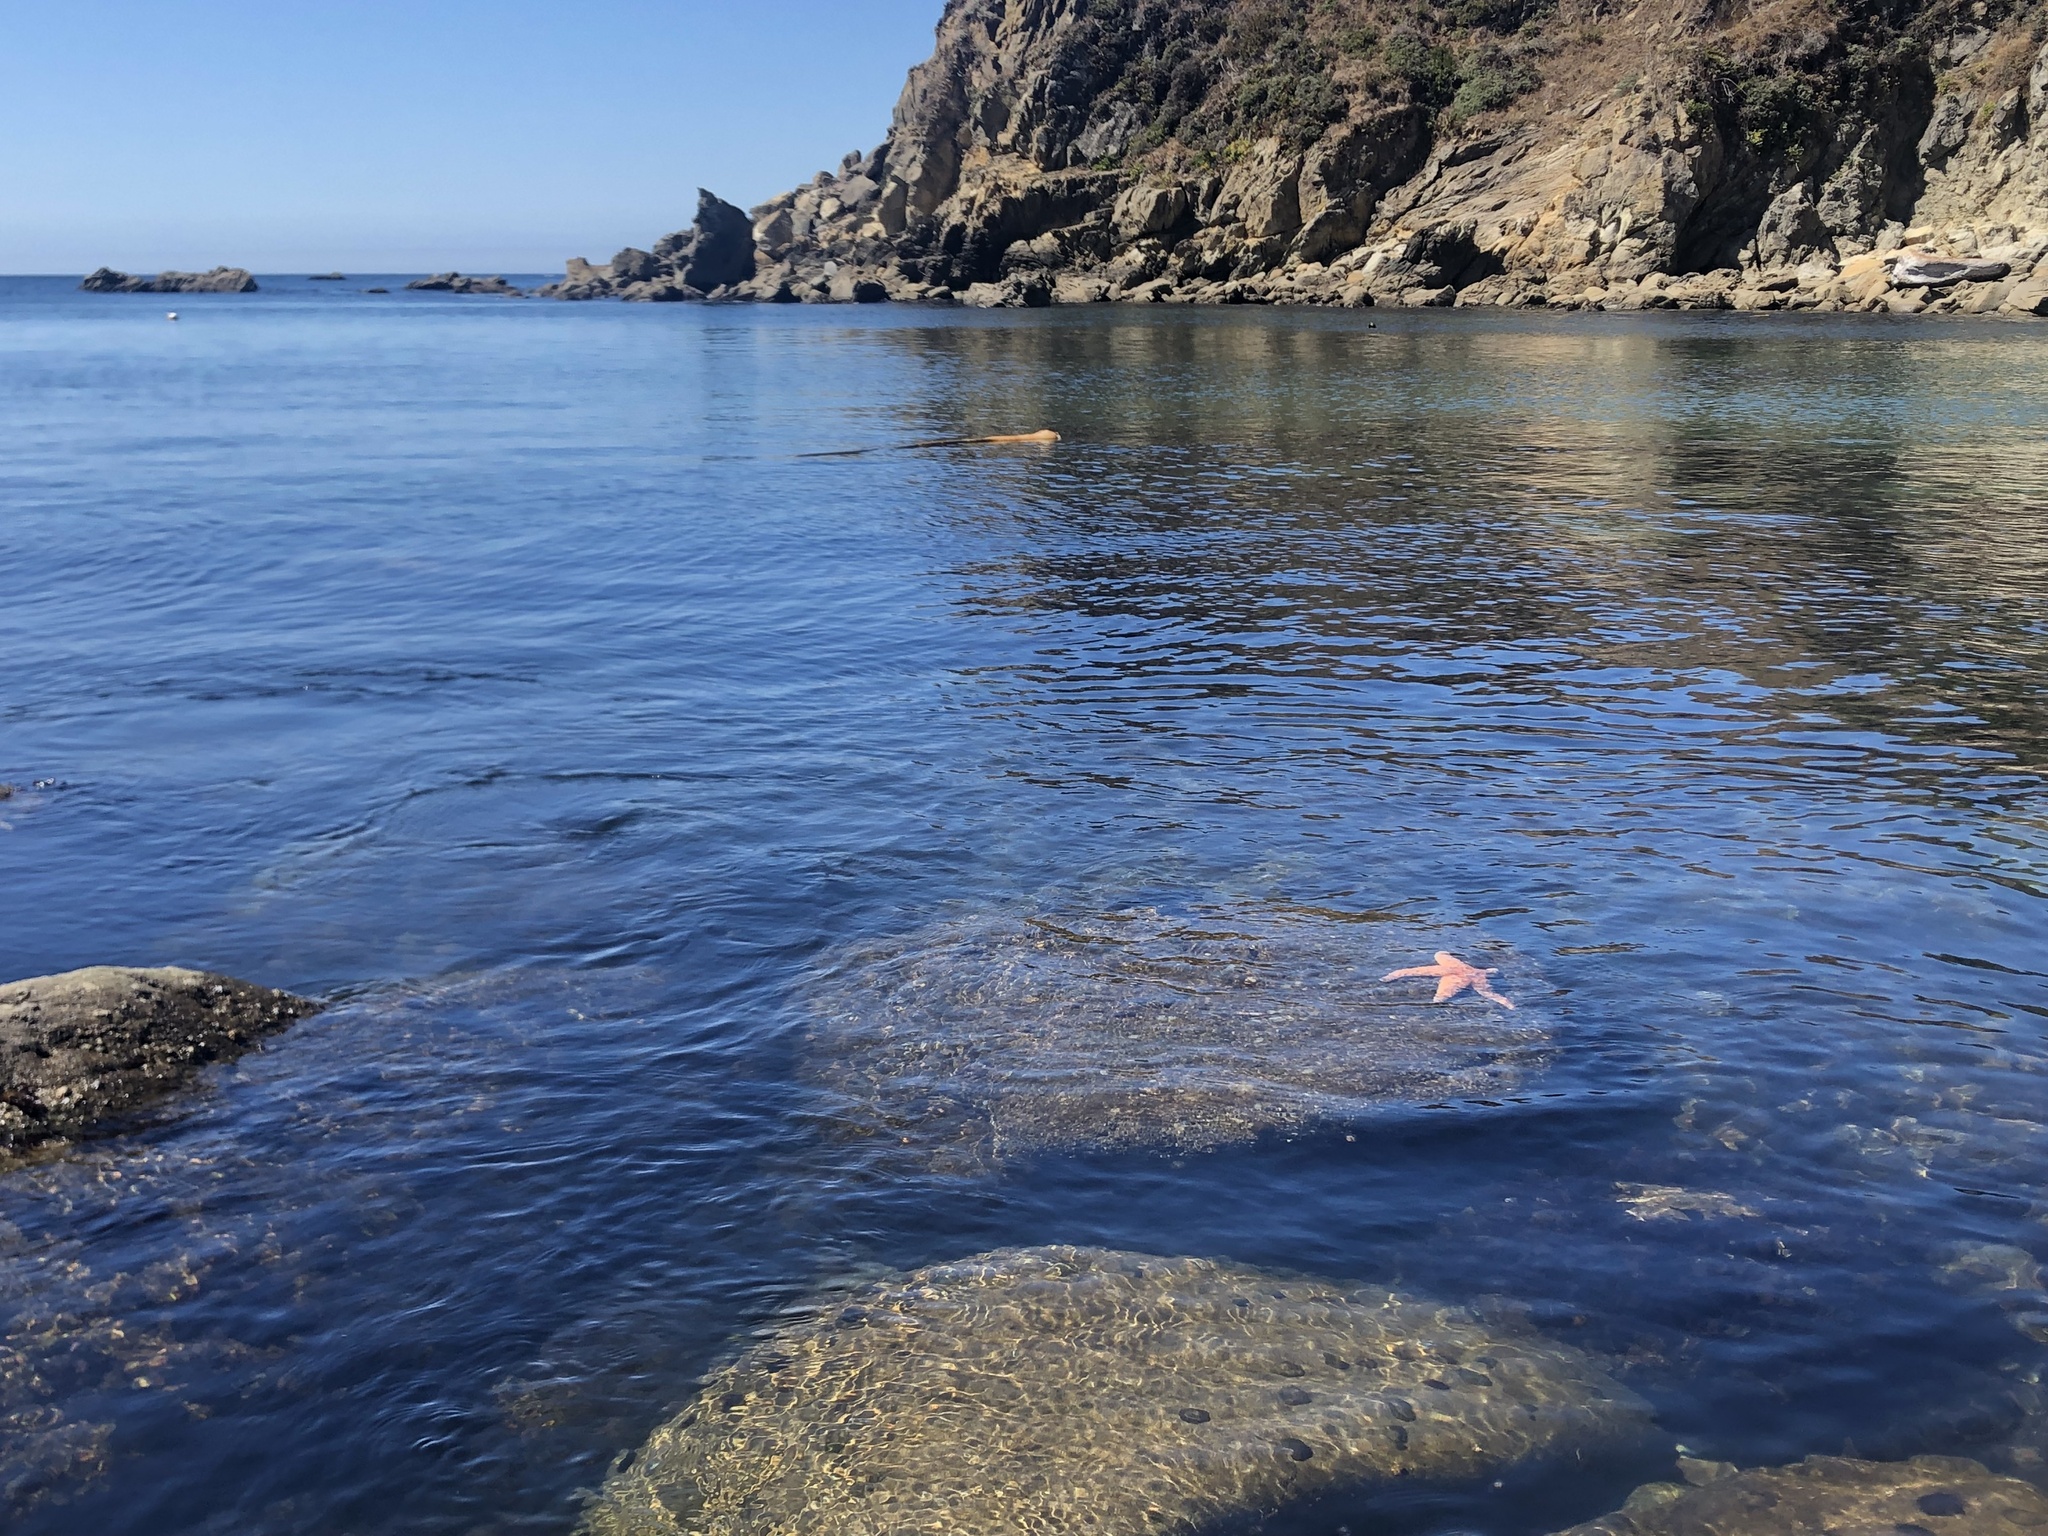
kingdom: Animalia
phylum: Echinodermata
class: Asteroidea
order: Forcipulatida
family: Asteriidae
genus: Pisaster
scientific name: Pisaster ochraceus
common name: Ochre stars
